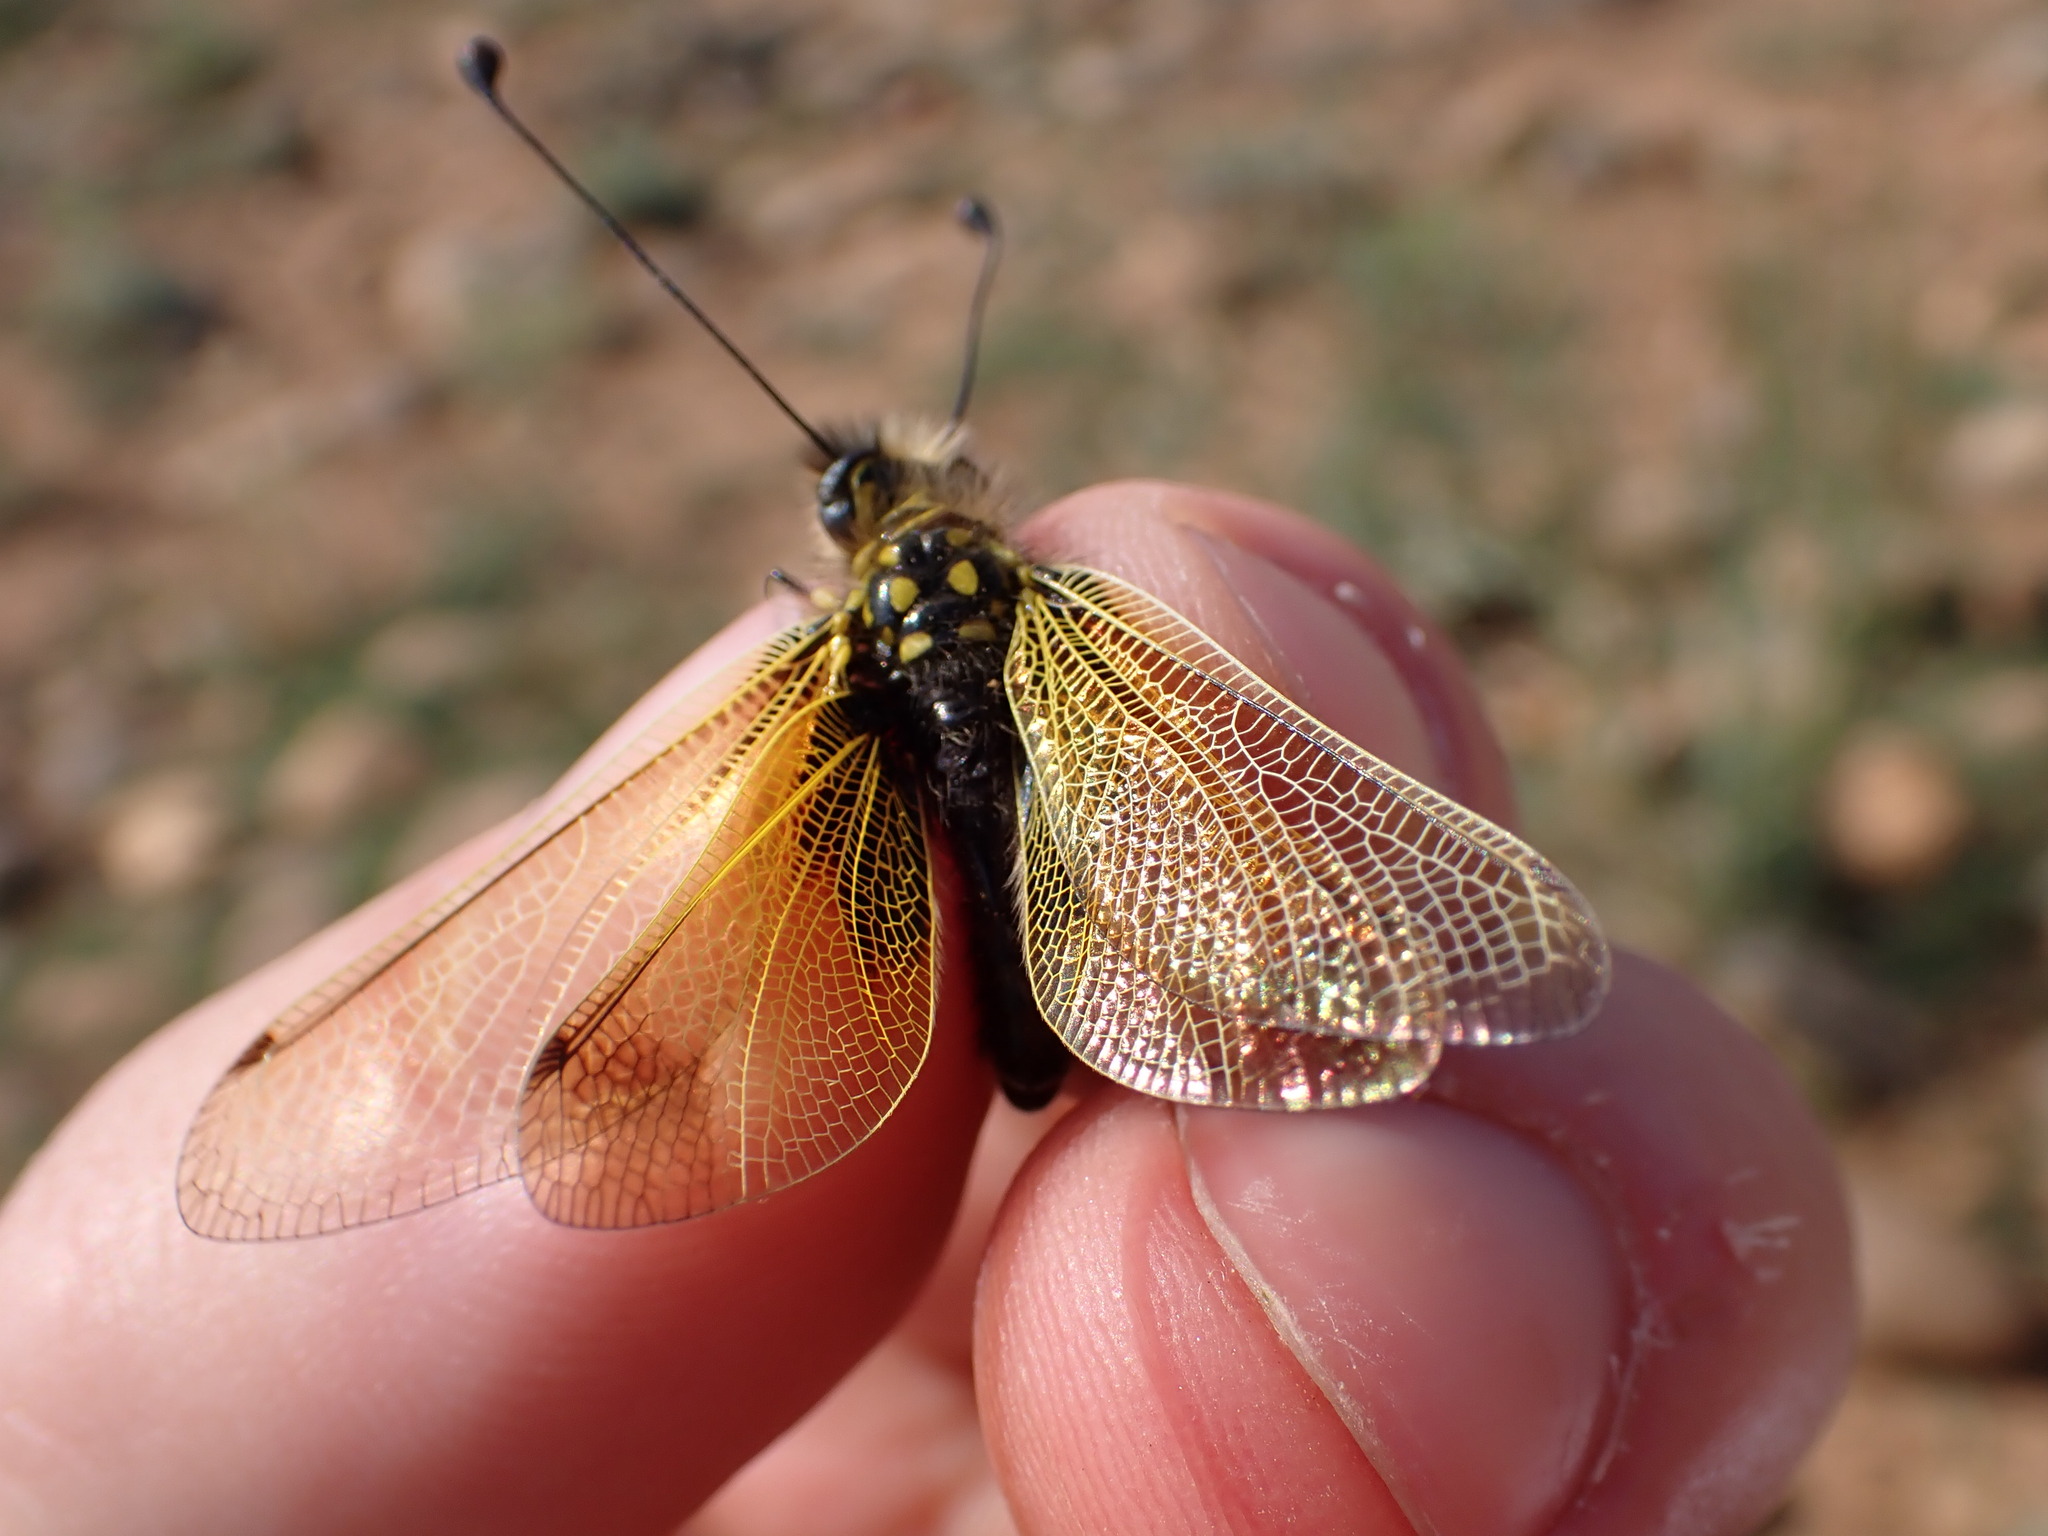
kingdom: Animalia
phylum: Arthropoda
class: Insecta
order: Neuroptera
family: Ascalaphidae
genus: Libelloides
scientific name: Libelloides ictericus
